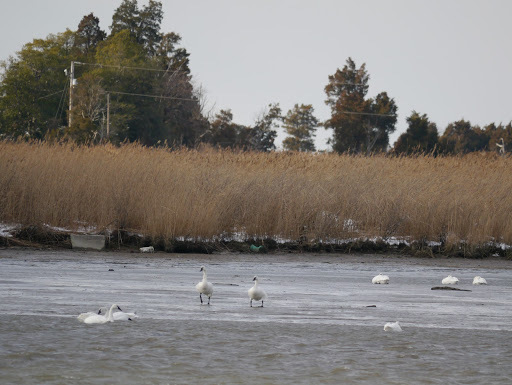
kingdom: Animalia
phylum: Chordata
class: Aves
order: Anseriformes
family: Anatidae
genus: Cygnus
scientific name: Cygnus columbianus
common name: Tundra swan
